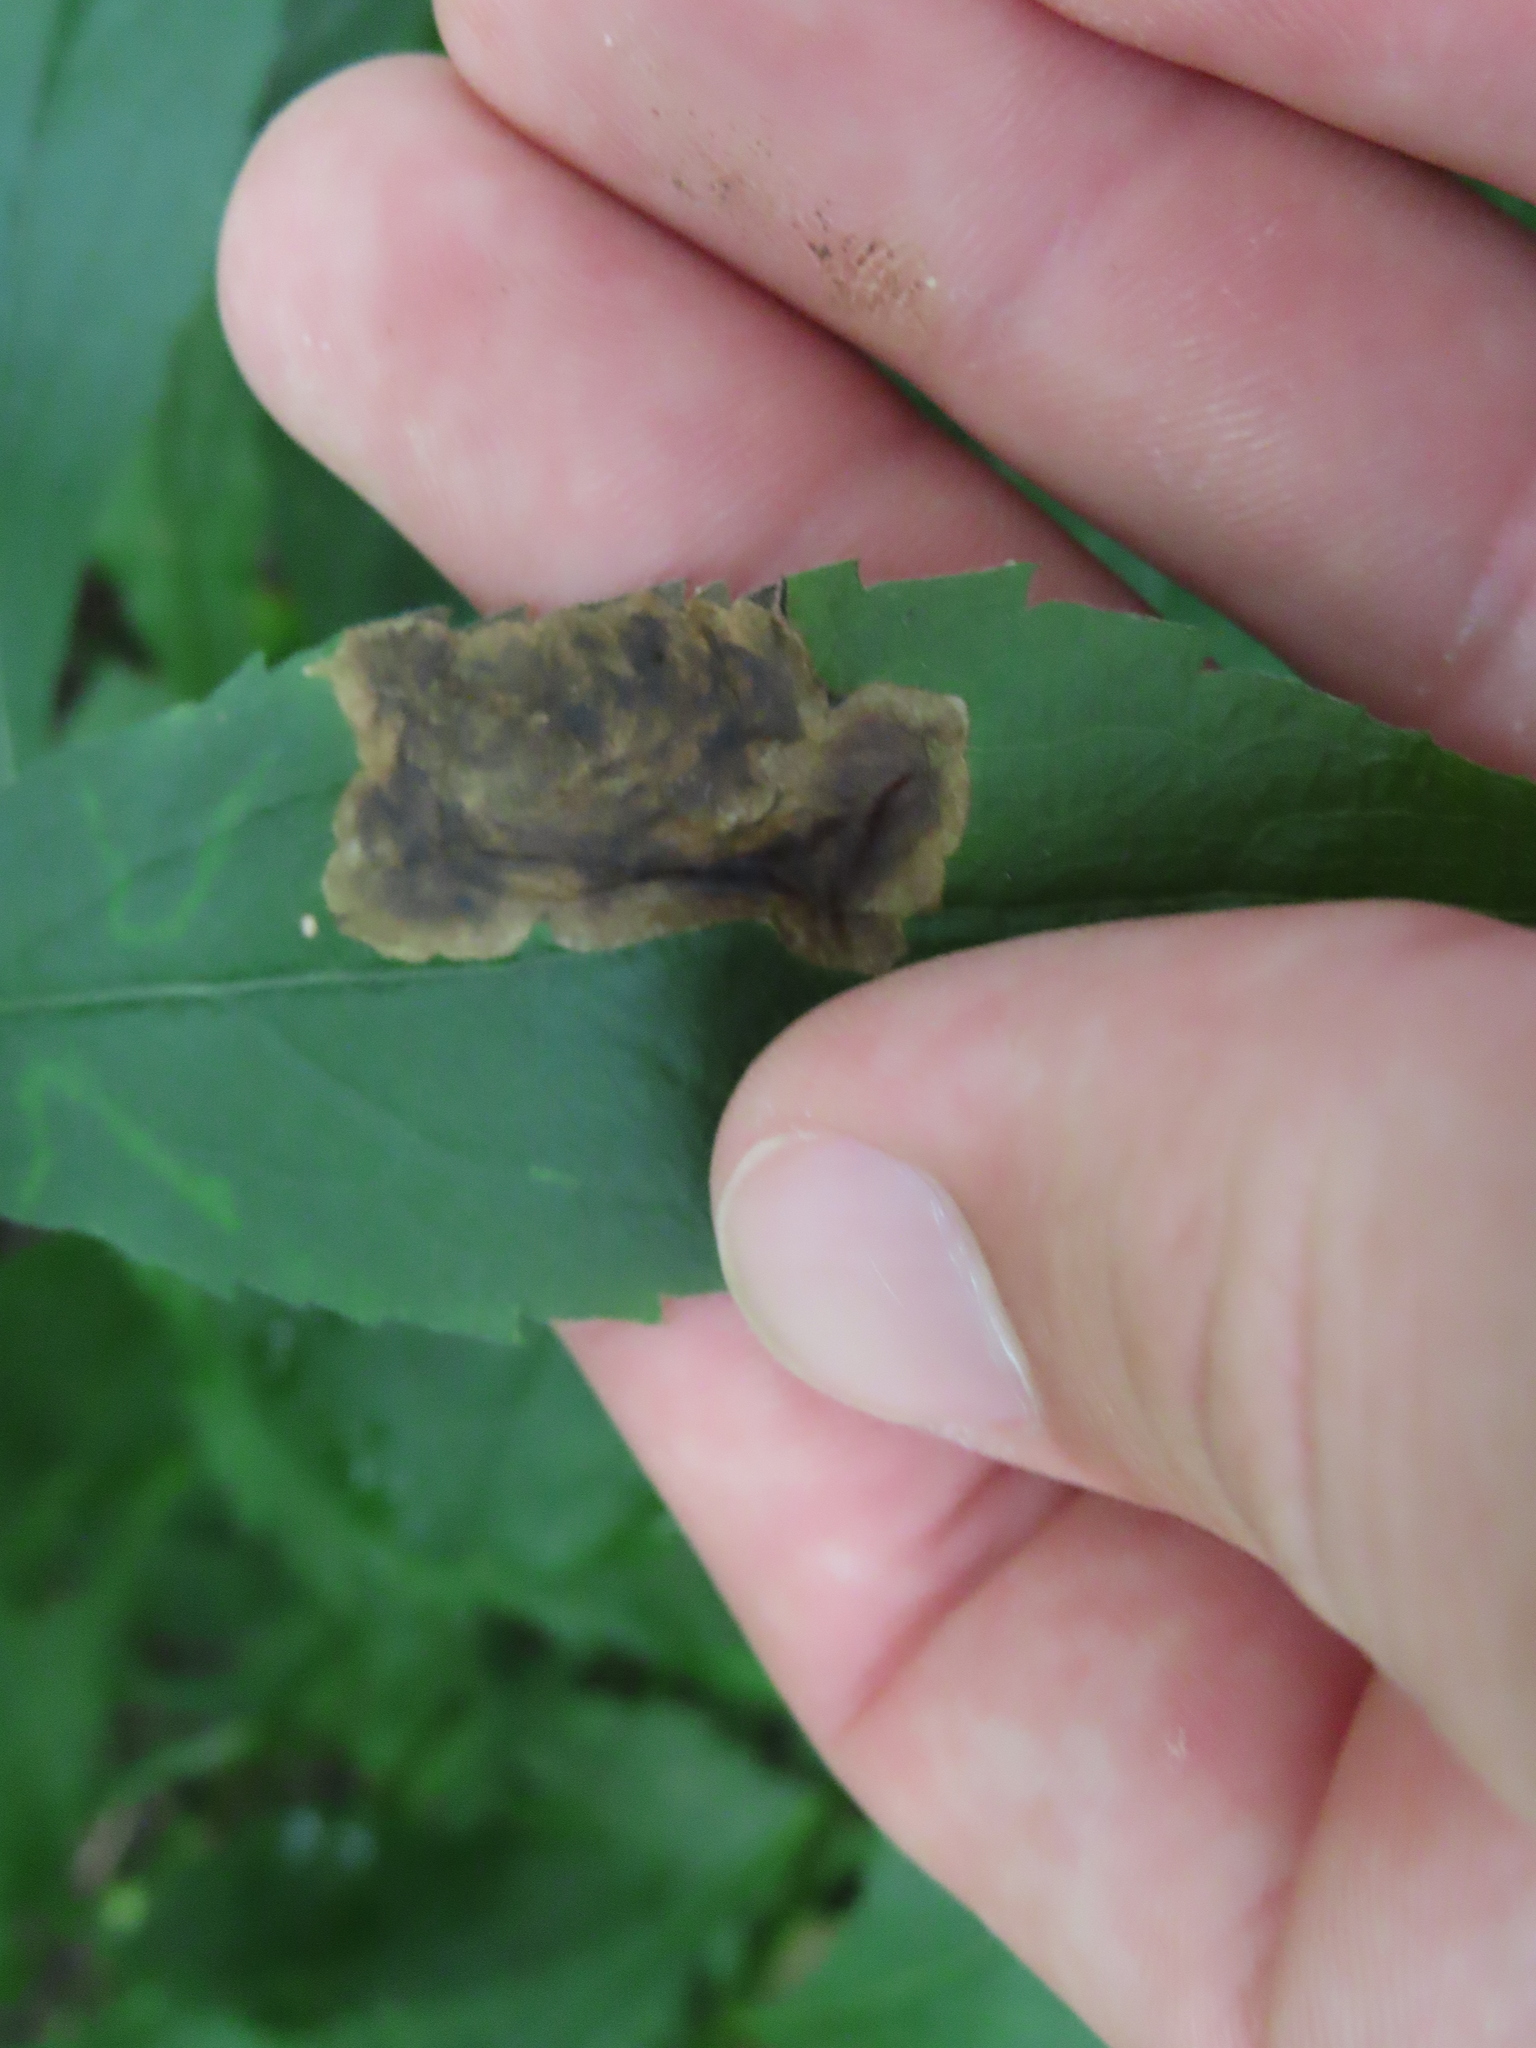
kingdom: Animalia
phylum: Arthropoda
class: Insecta
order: Diptera
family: Agromyzidae
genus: Nemorimyza
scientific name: Nemorimyza posticata
